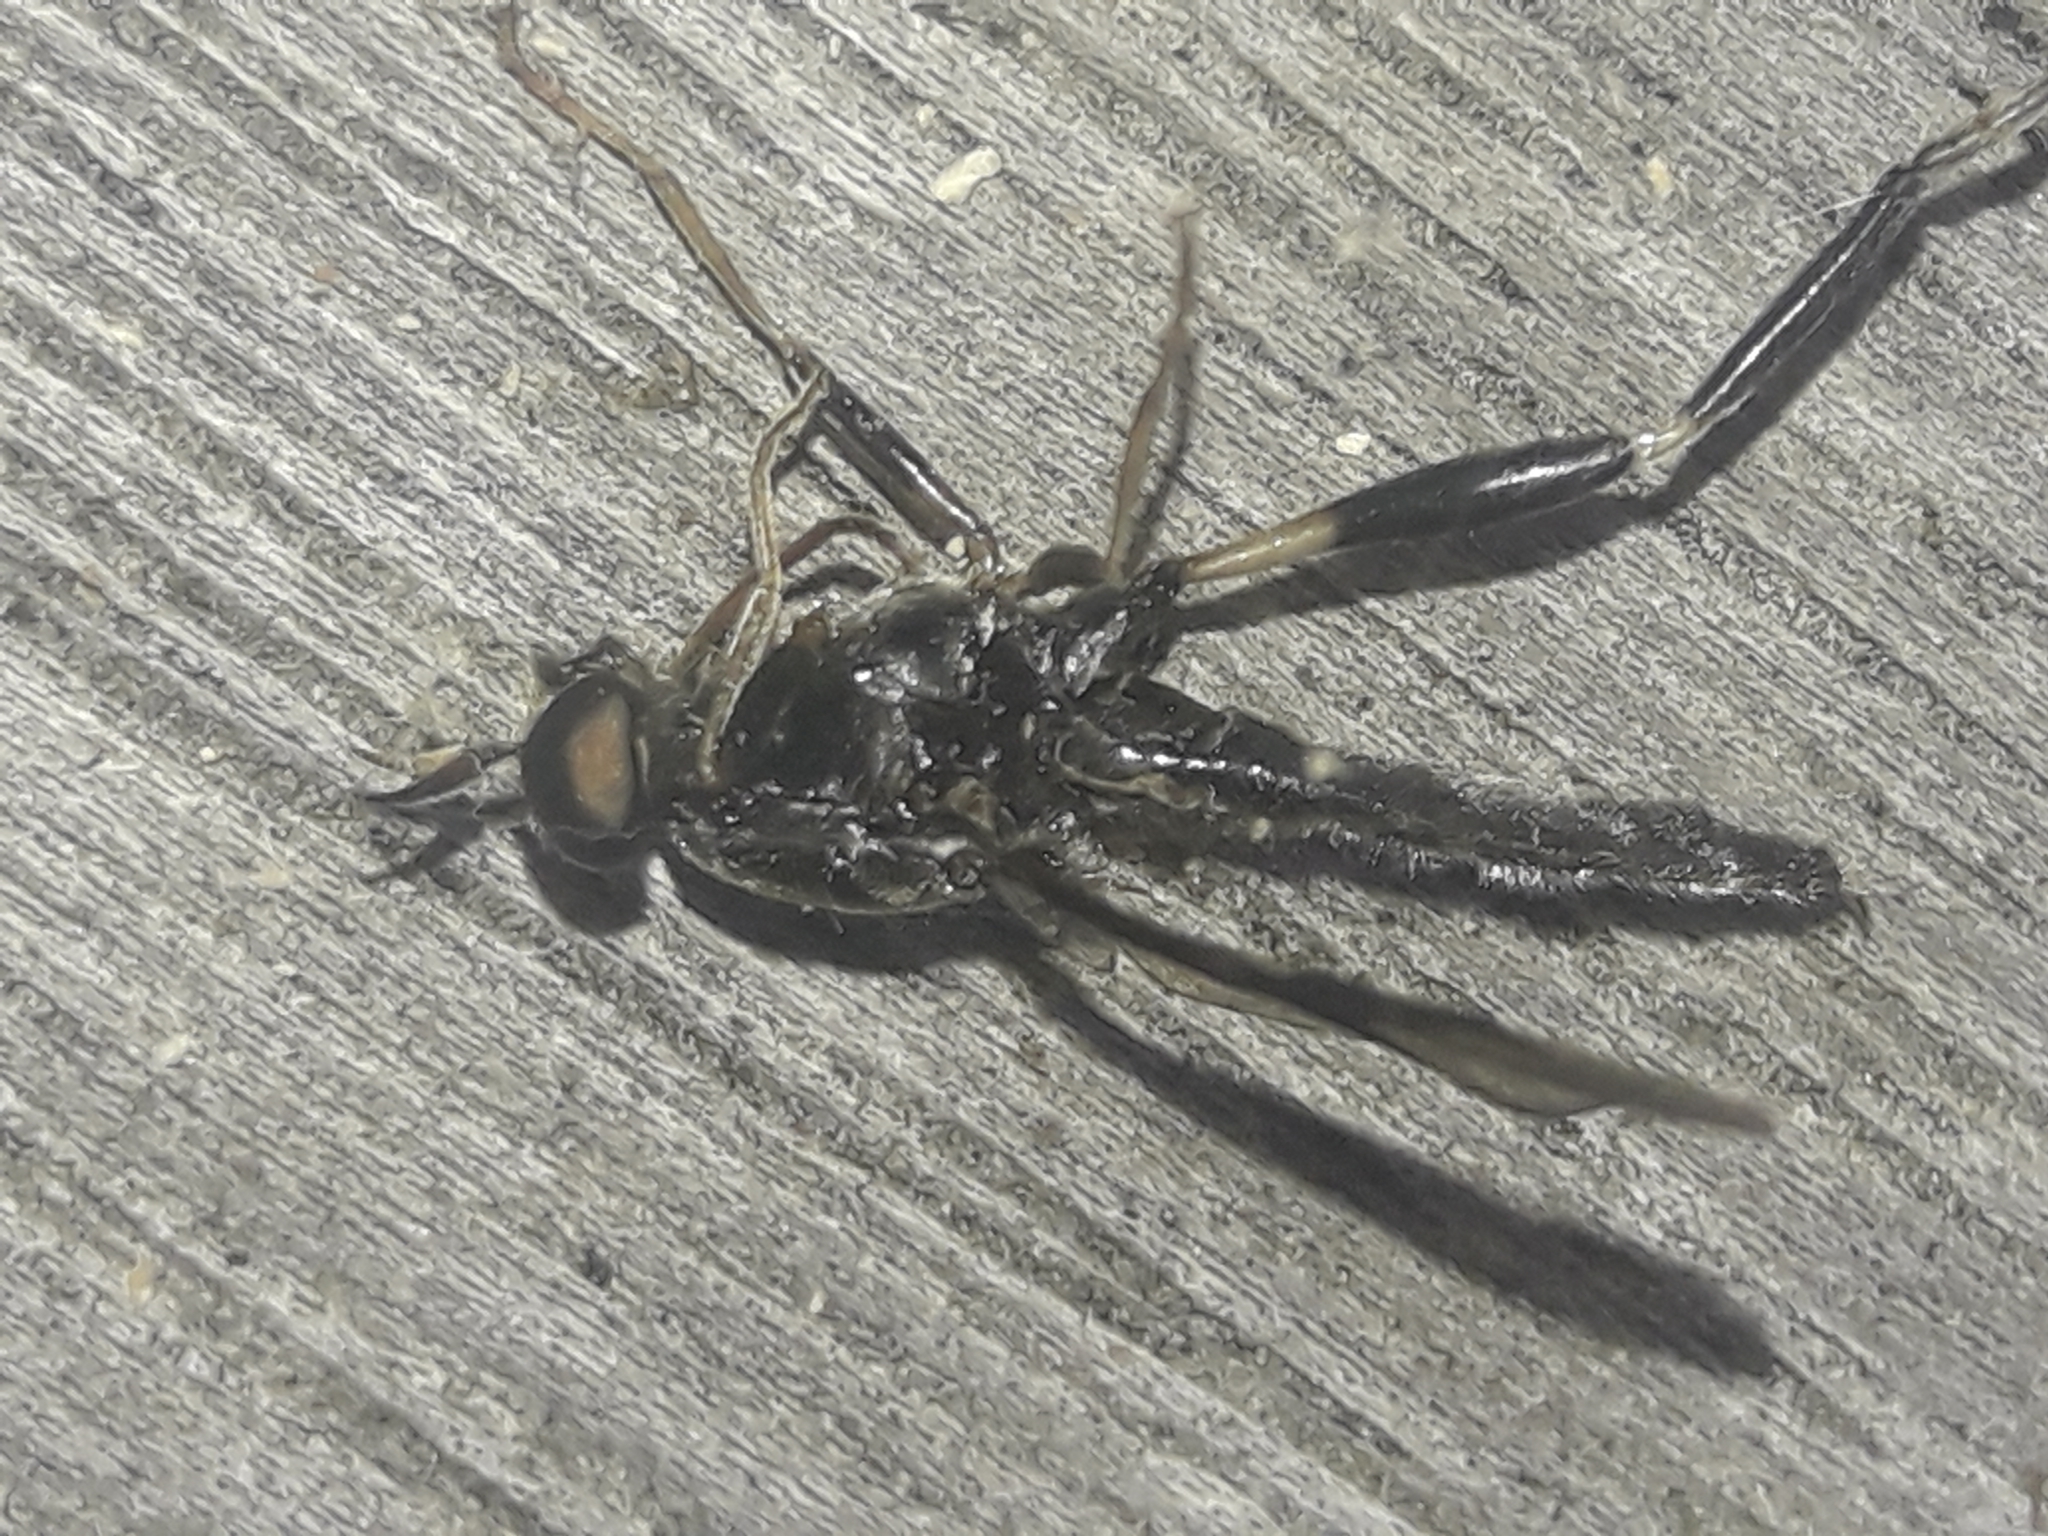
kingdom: Animalia
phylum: Arthropoda
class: Insecta
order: Diptera
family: Stratiomyidae
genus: Exaireta
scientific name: Exaireta spinigera
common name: Blue soldier fly
